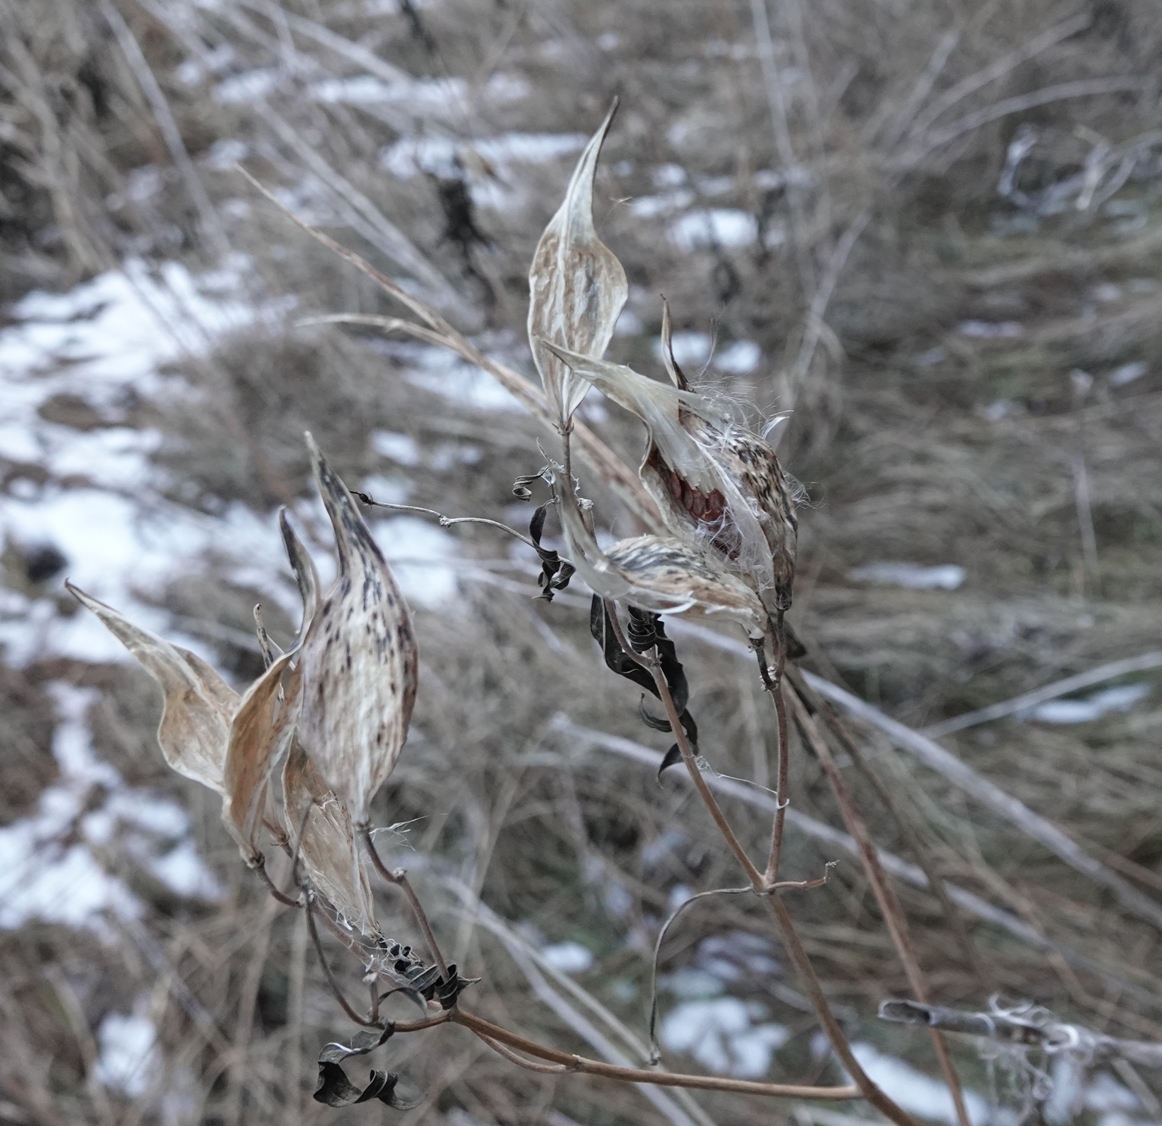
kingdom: Plantae
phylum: Tracheophyta
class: Magnoliopsida
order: Gentianales
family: Apocynaceae
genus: Asclepias
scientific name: Asclepias incarnata
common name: Swamp milkweed
